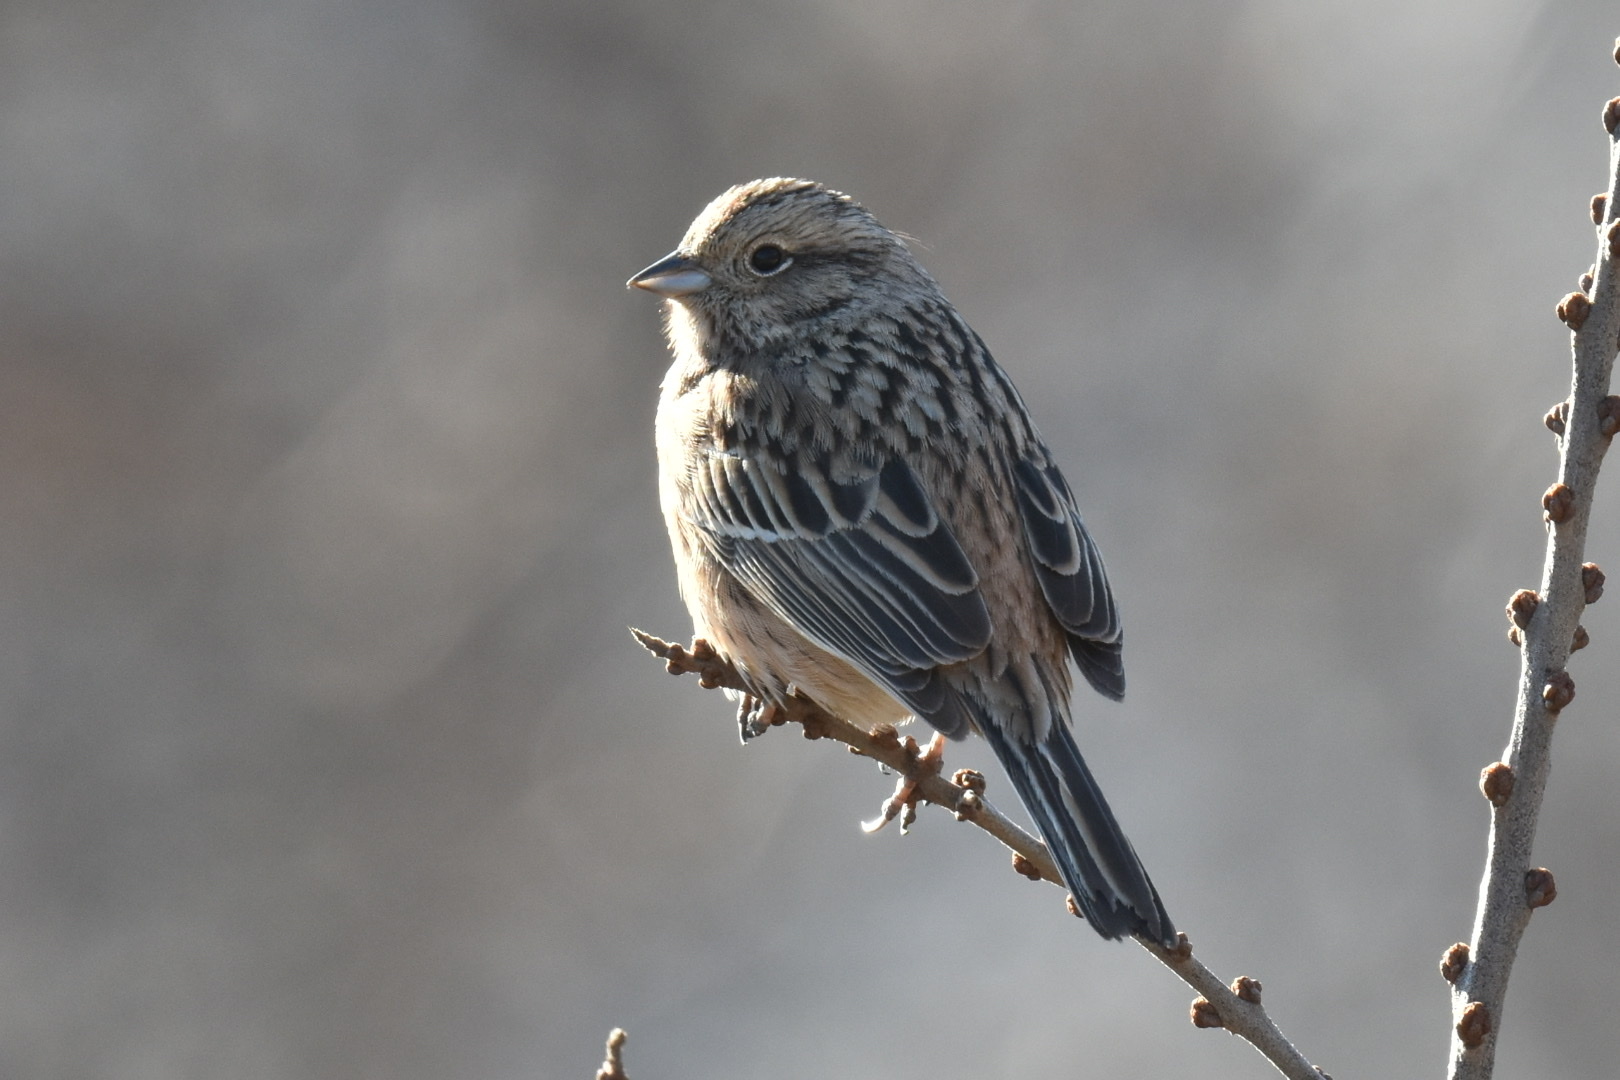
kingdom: Animalia
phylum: Chordata
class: Aves
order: Passeriformes
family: Emberizidae
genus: Emberiza
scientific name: Emberiza cia
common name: Rock bunting
